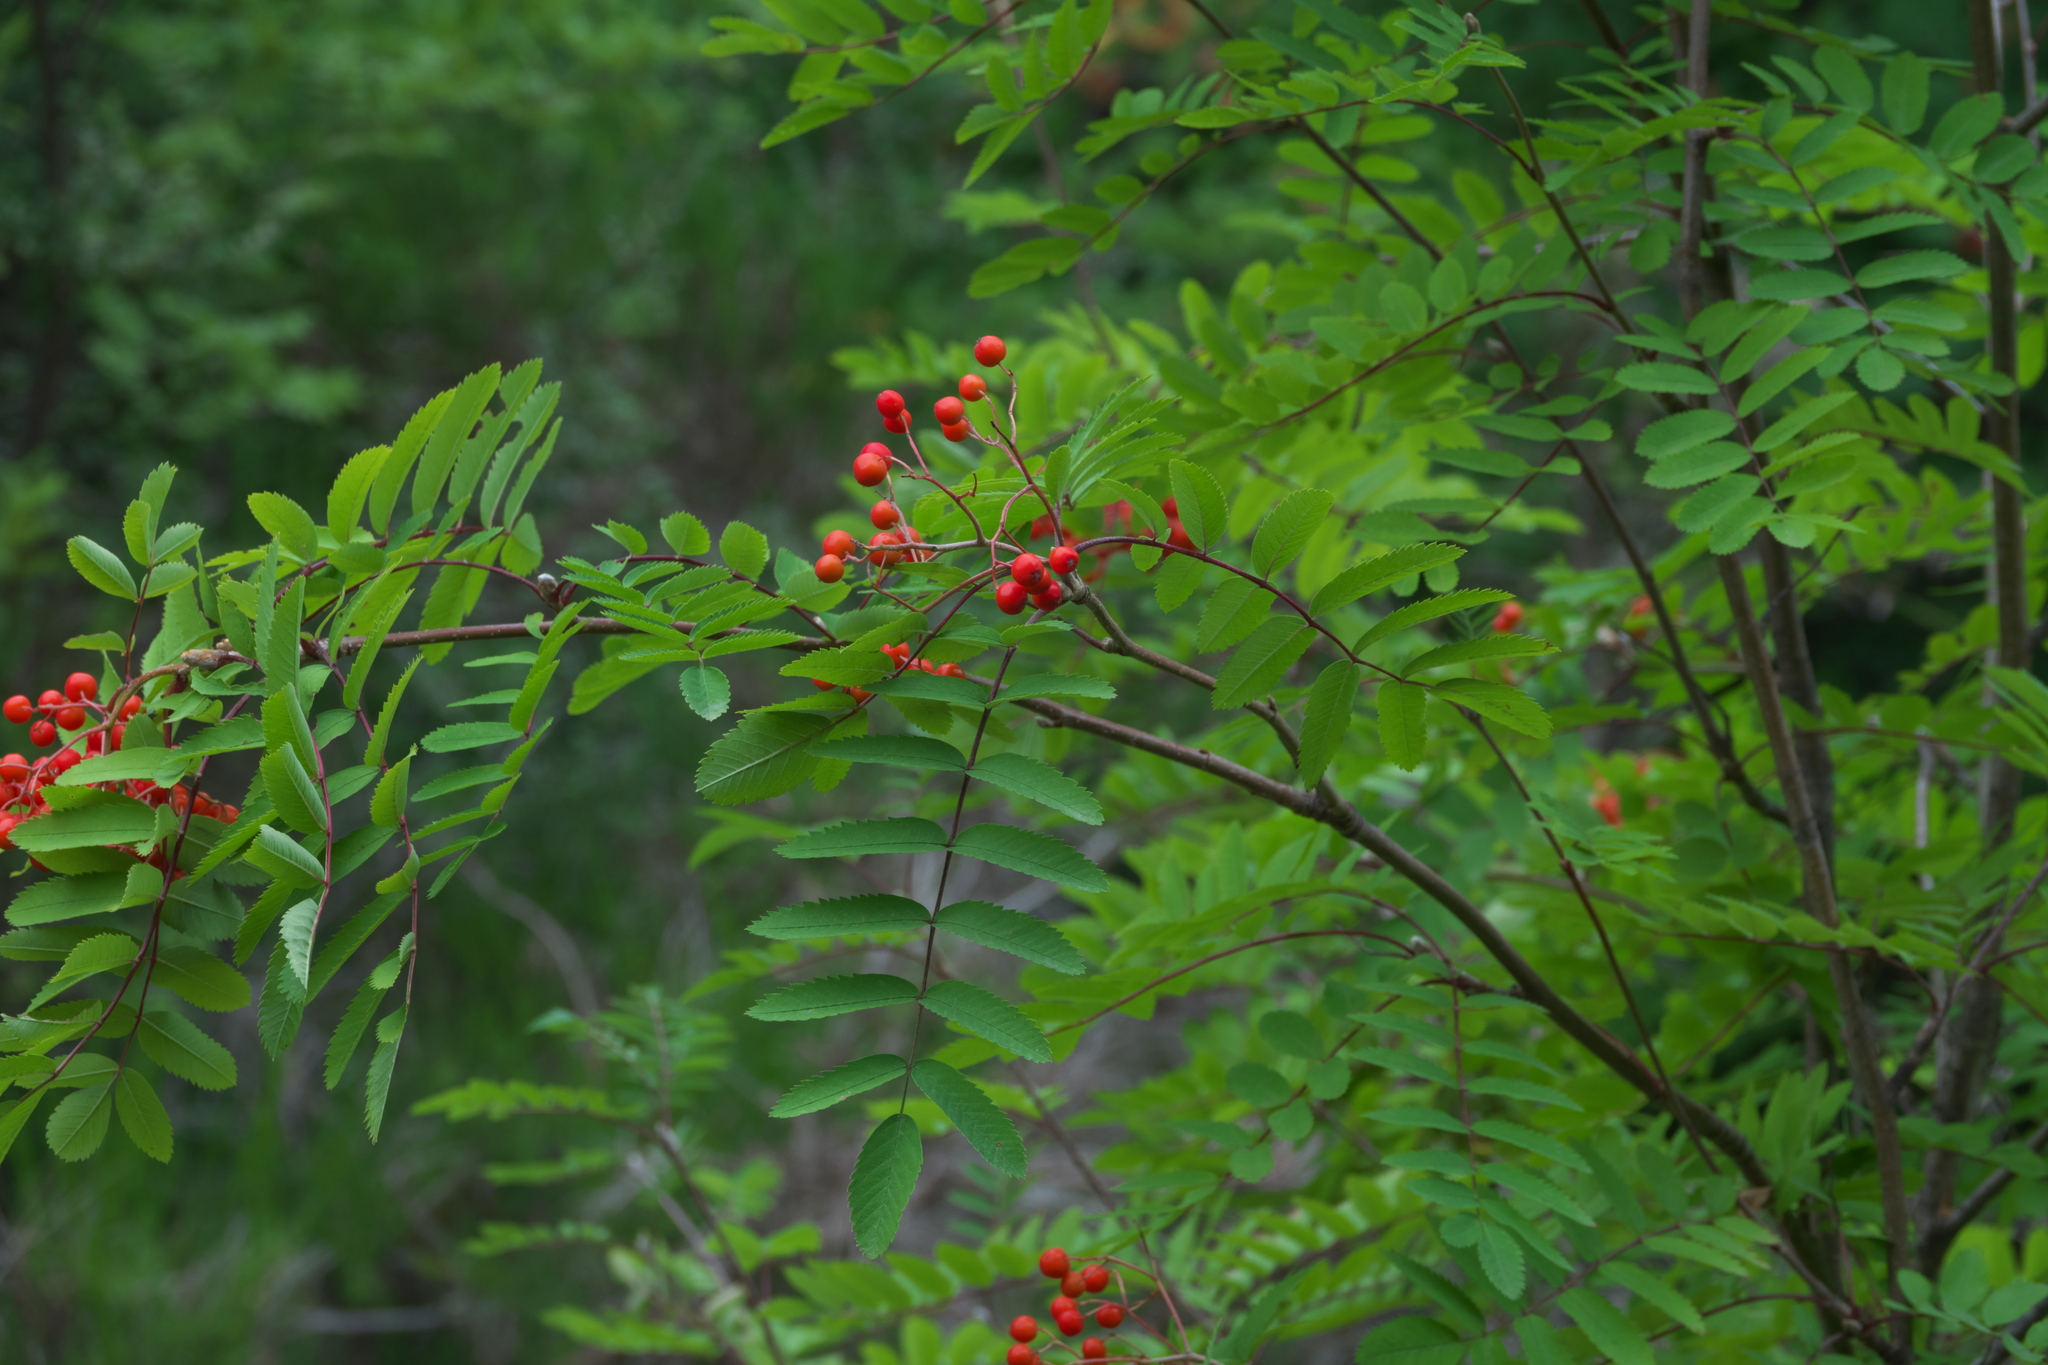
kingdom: Plantae
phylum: Tracheophyta
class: Magnoliopsida
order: Rosales
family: Rosaceae
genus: Sorbus
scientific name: Sorbus aucuparia
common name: Rowan
